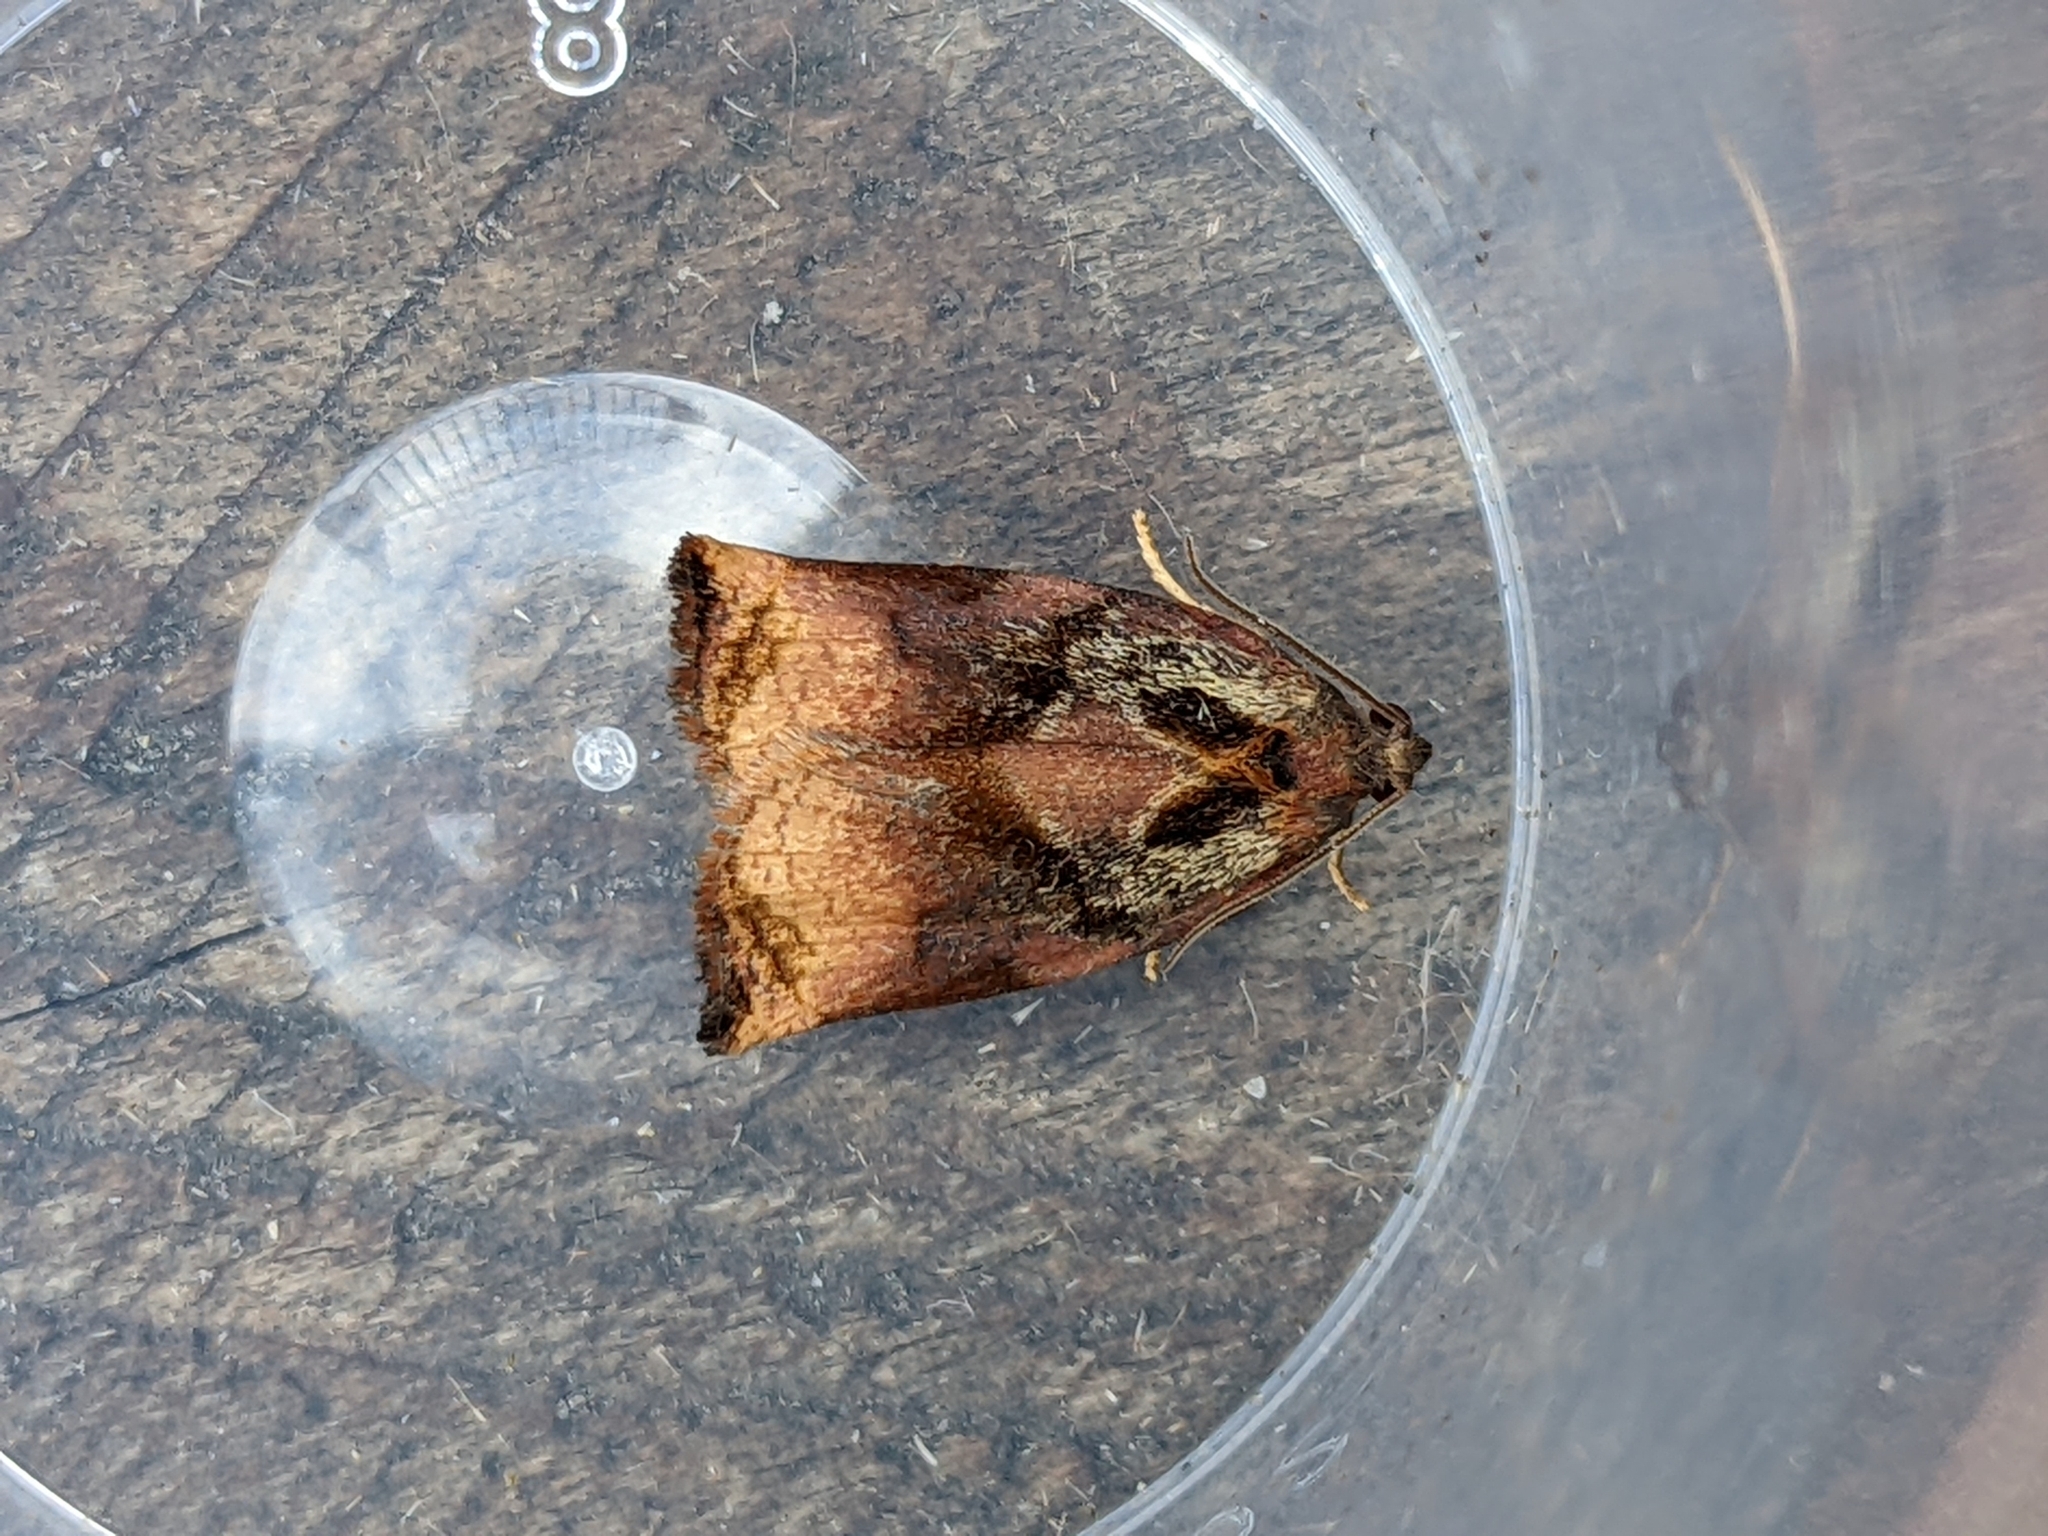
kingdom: Animalia
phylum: Arthropoda
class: Insecta
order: Lepidoptera
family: Tortricidae
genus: Archips
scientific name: Archips podana
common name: Large fruit-tree tortrix
